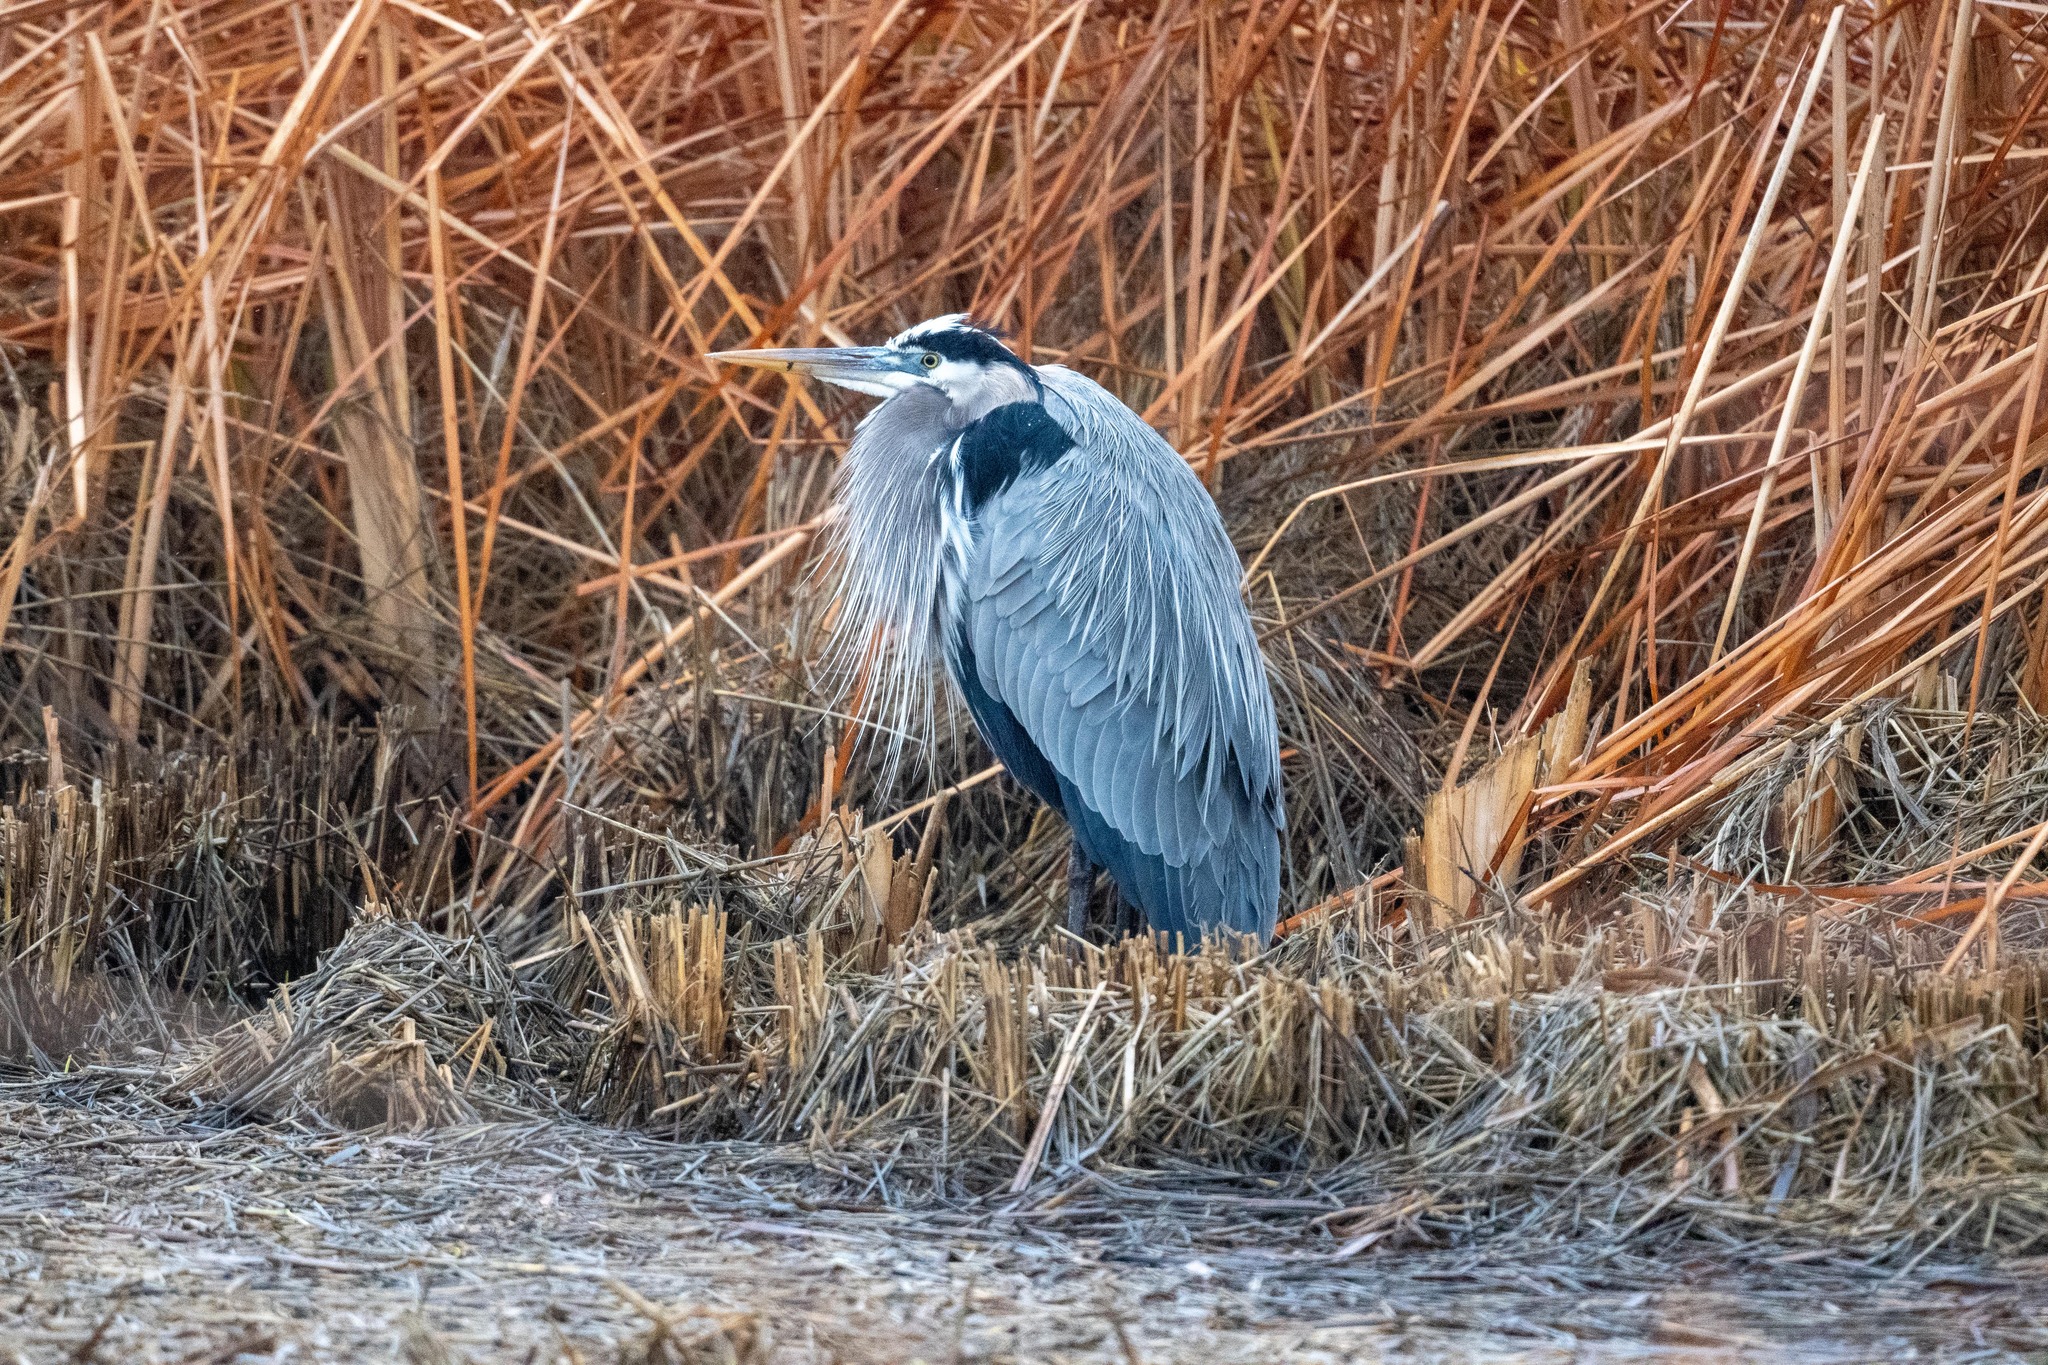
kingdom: Animalia
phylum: Chordata
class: Aves
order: Pelecaniformes
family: Ardeidae
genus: Ardea
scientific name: Ardea herodias
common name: Great blue heron
